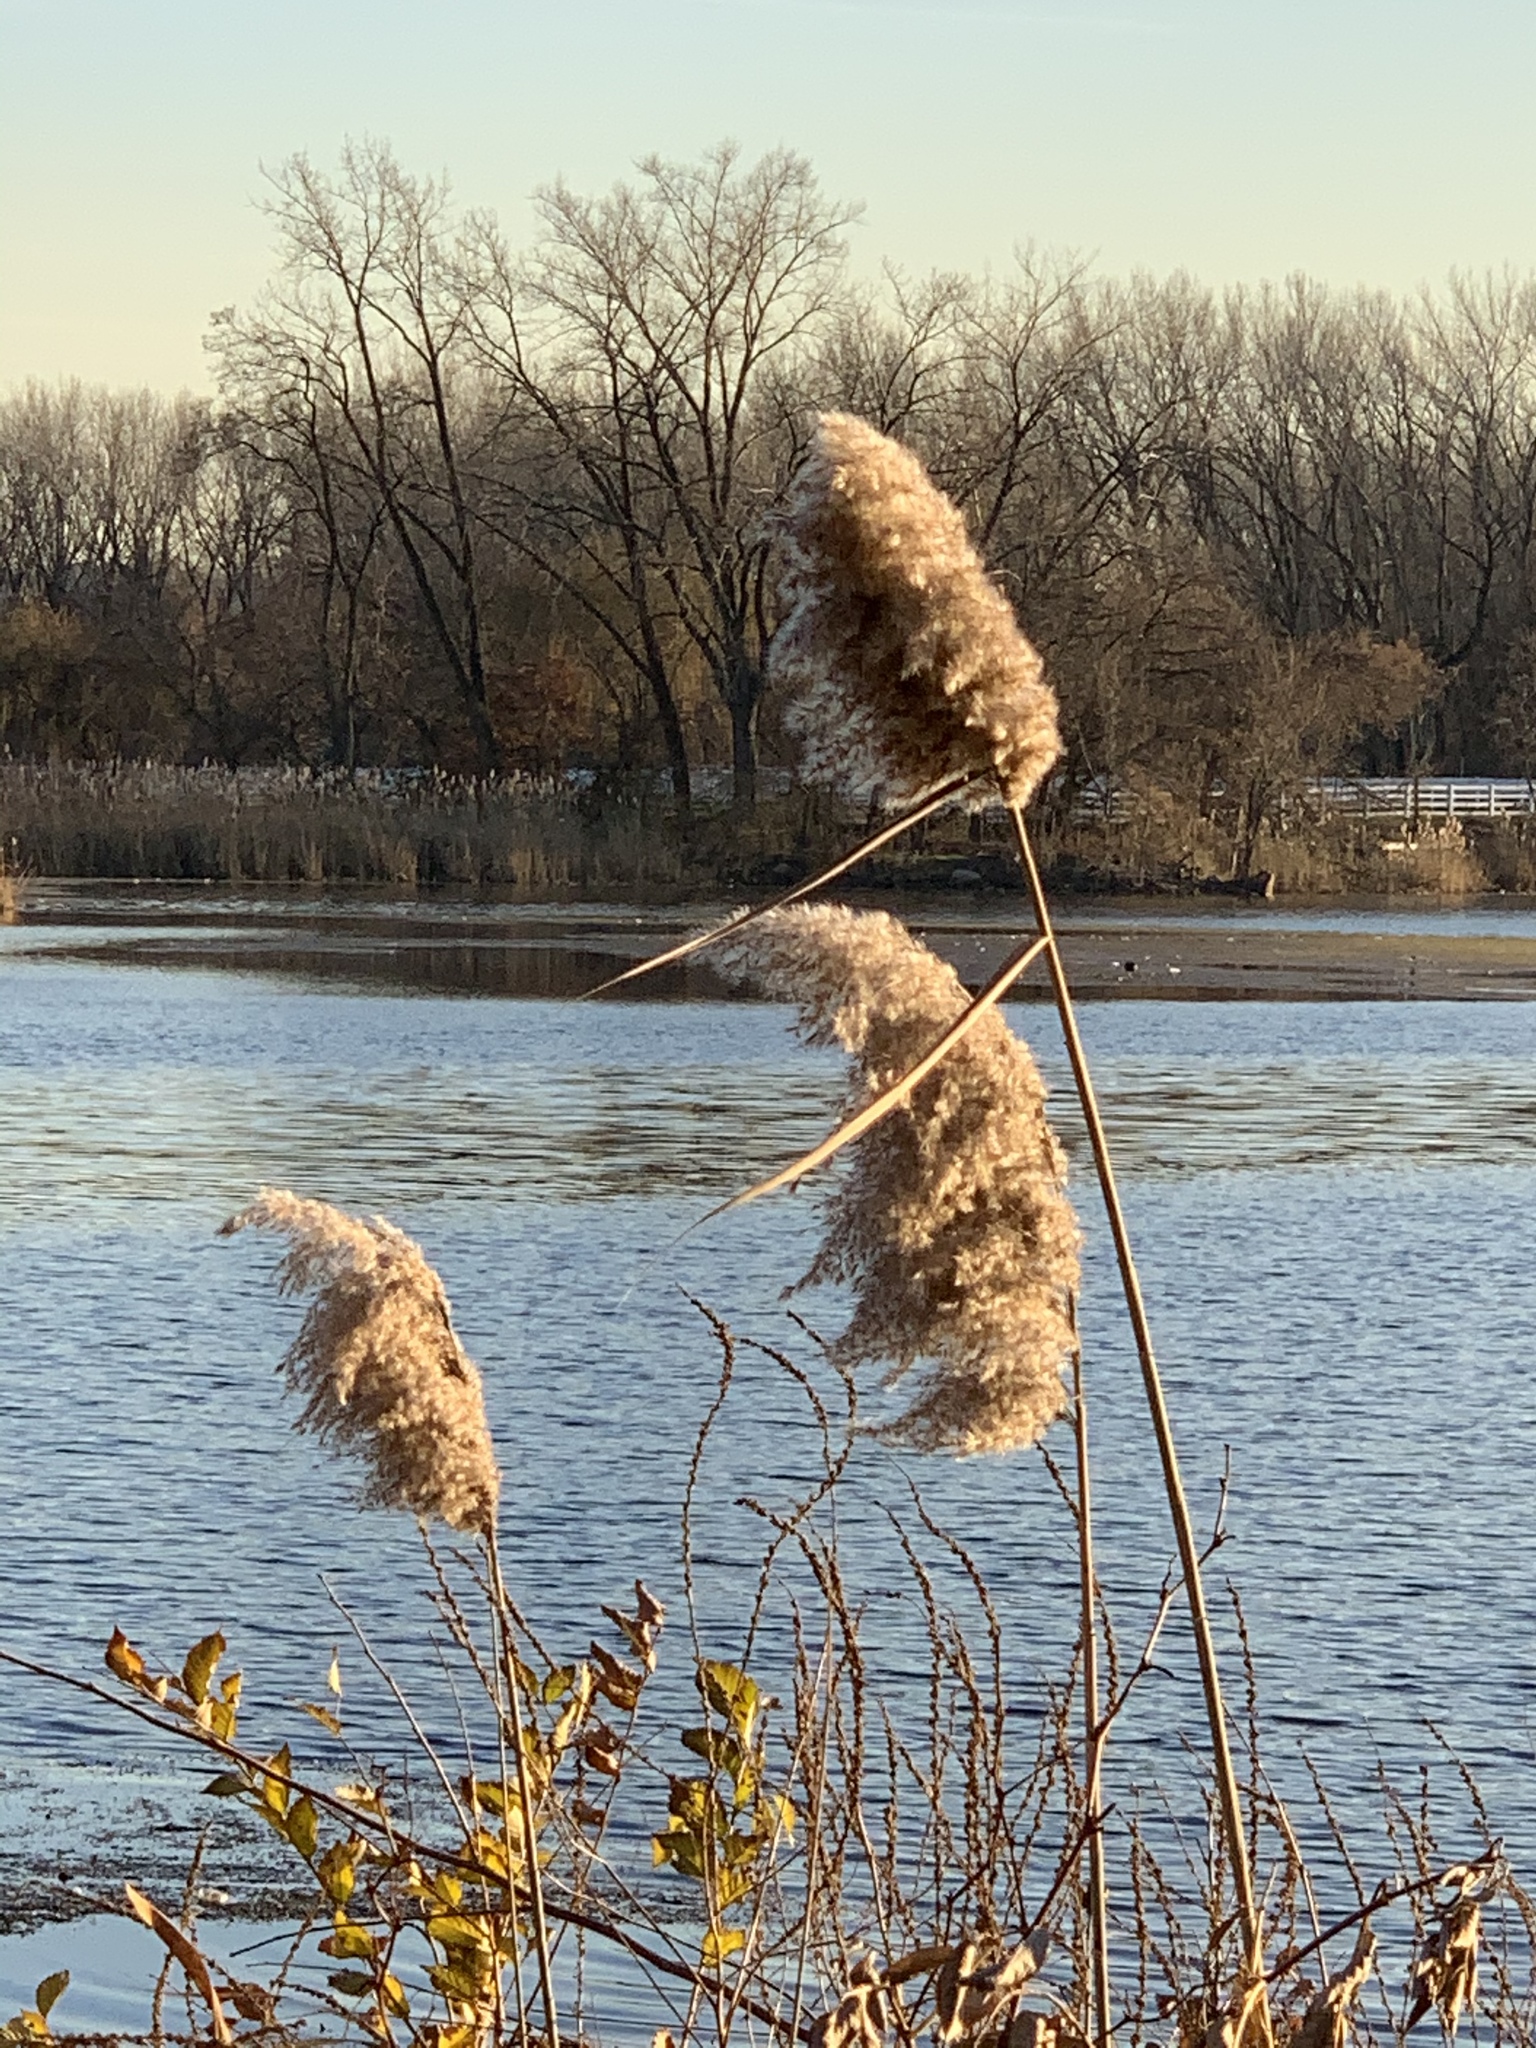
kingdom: Plantae
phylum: Tracheophyta
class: Liliopsida
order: Poales
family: Poaceae
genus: Phragmites
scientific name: Phragmites australis
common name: Common reed
